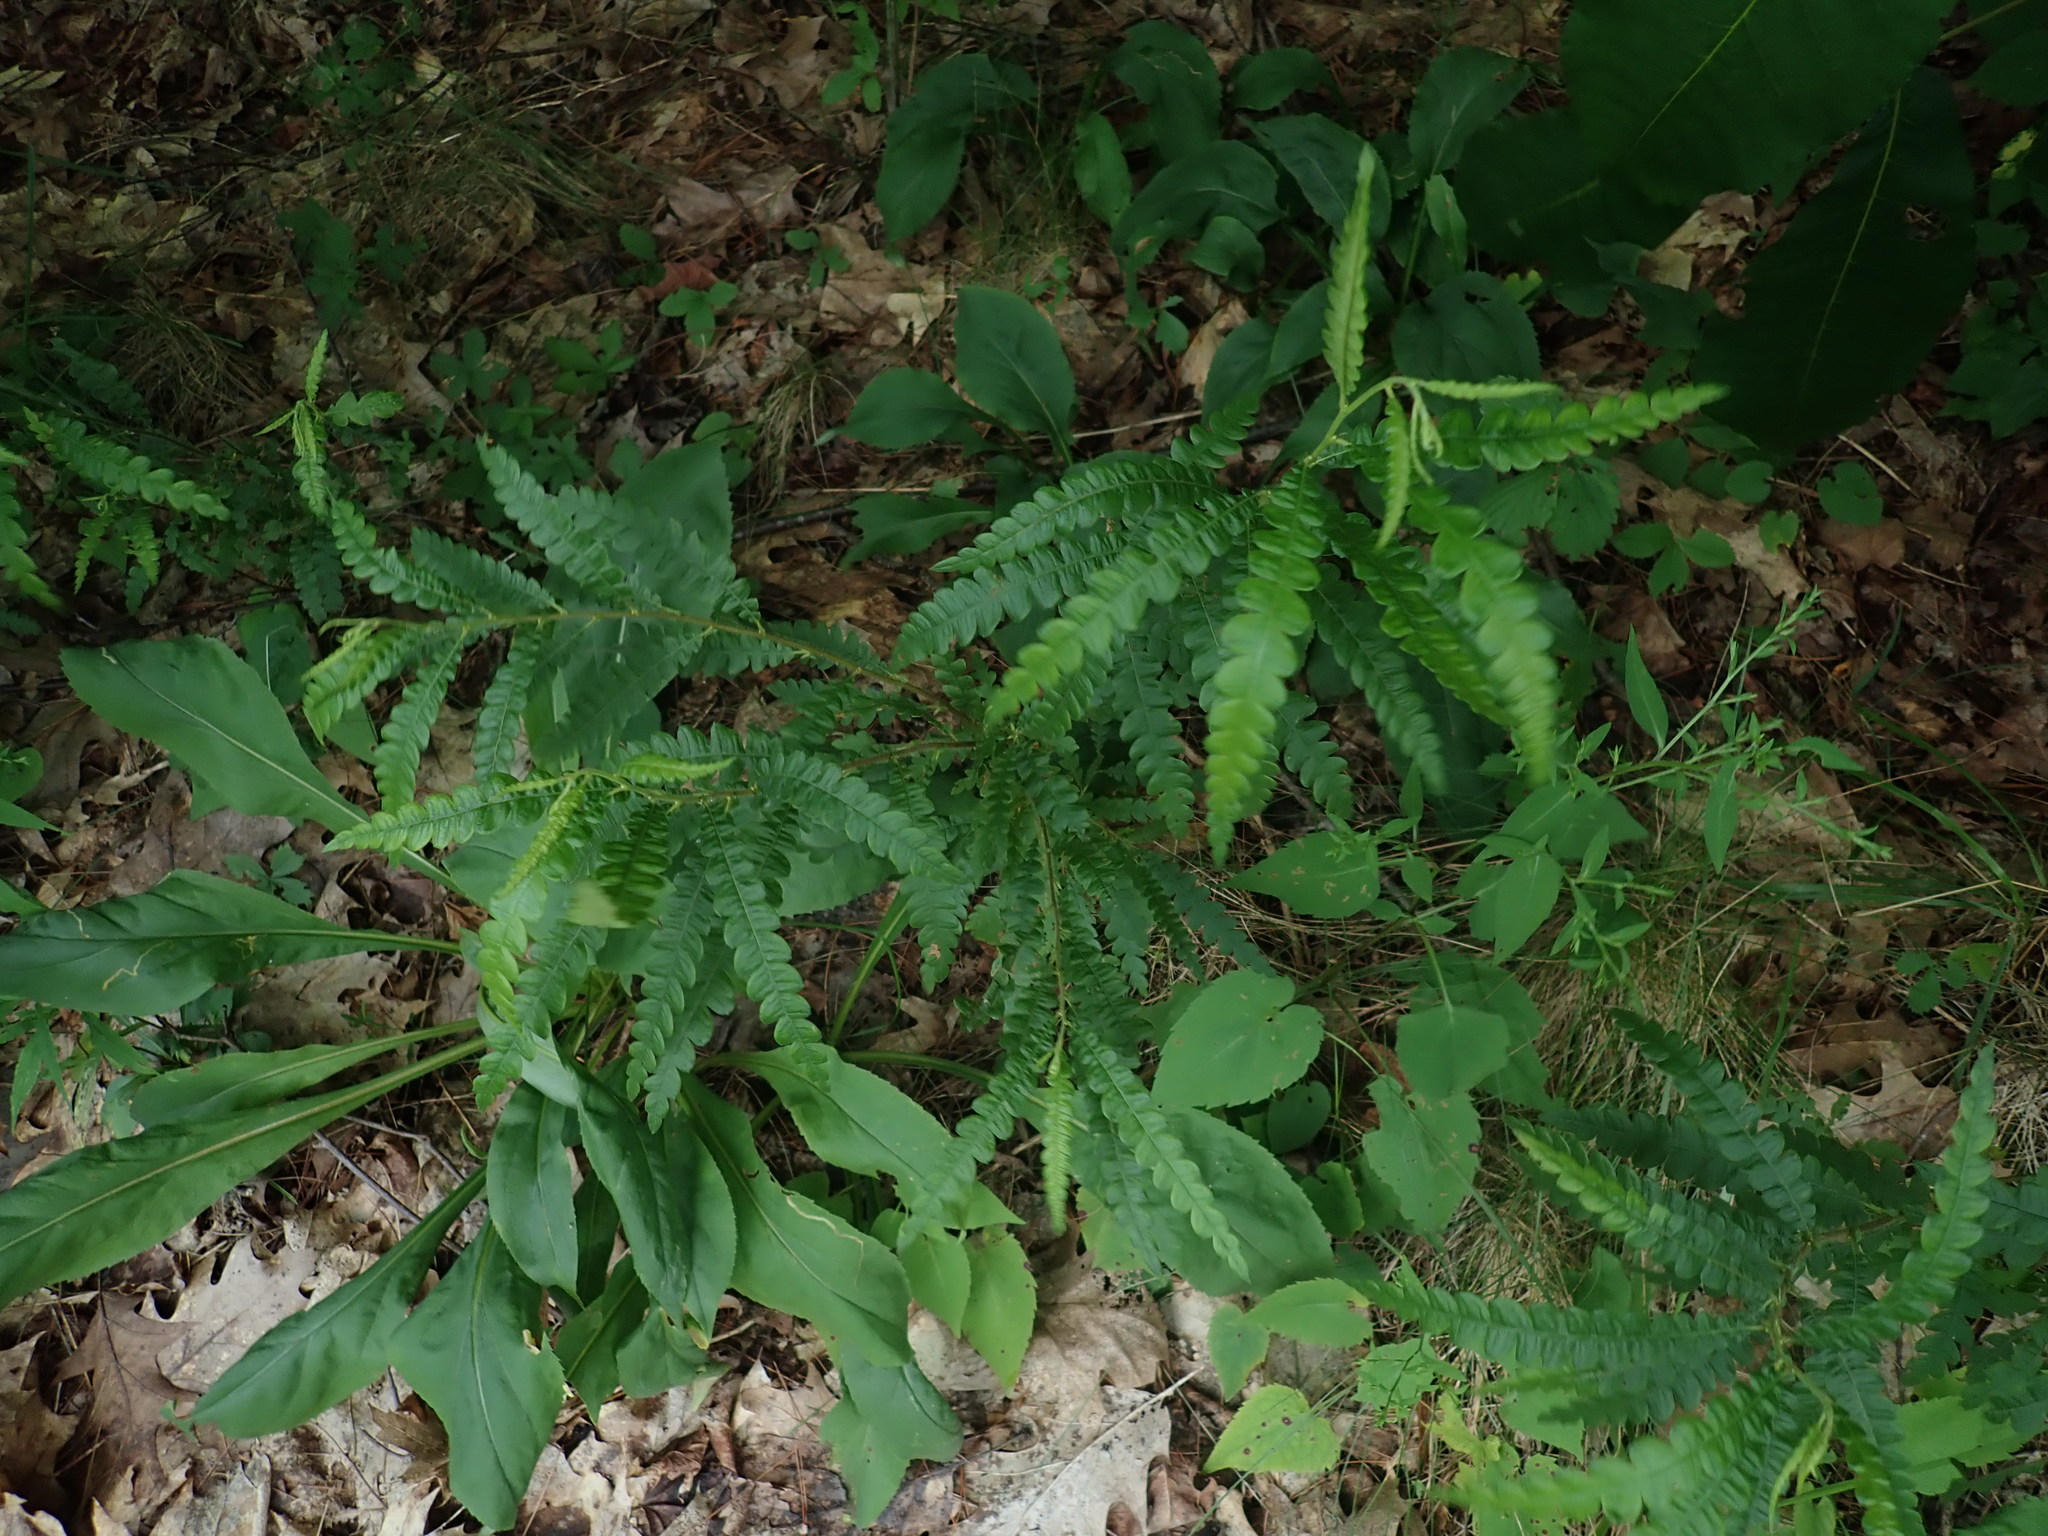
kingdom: Plantae
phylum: Tracheophyta
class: Magnoliopsida
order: Fagales
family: Myricaceae
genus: Comptonia
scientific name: Comptonia peregrina
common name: Sweet-fern
